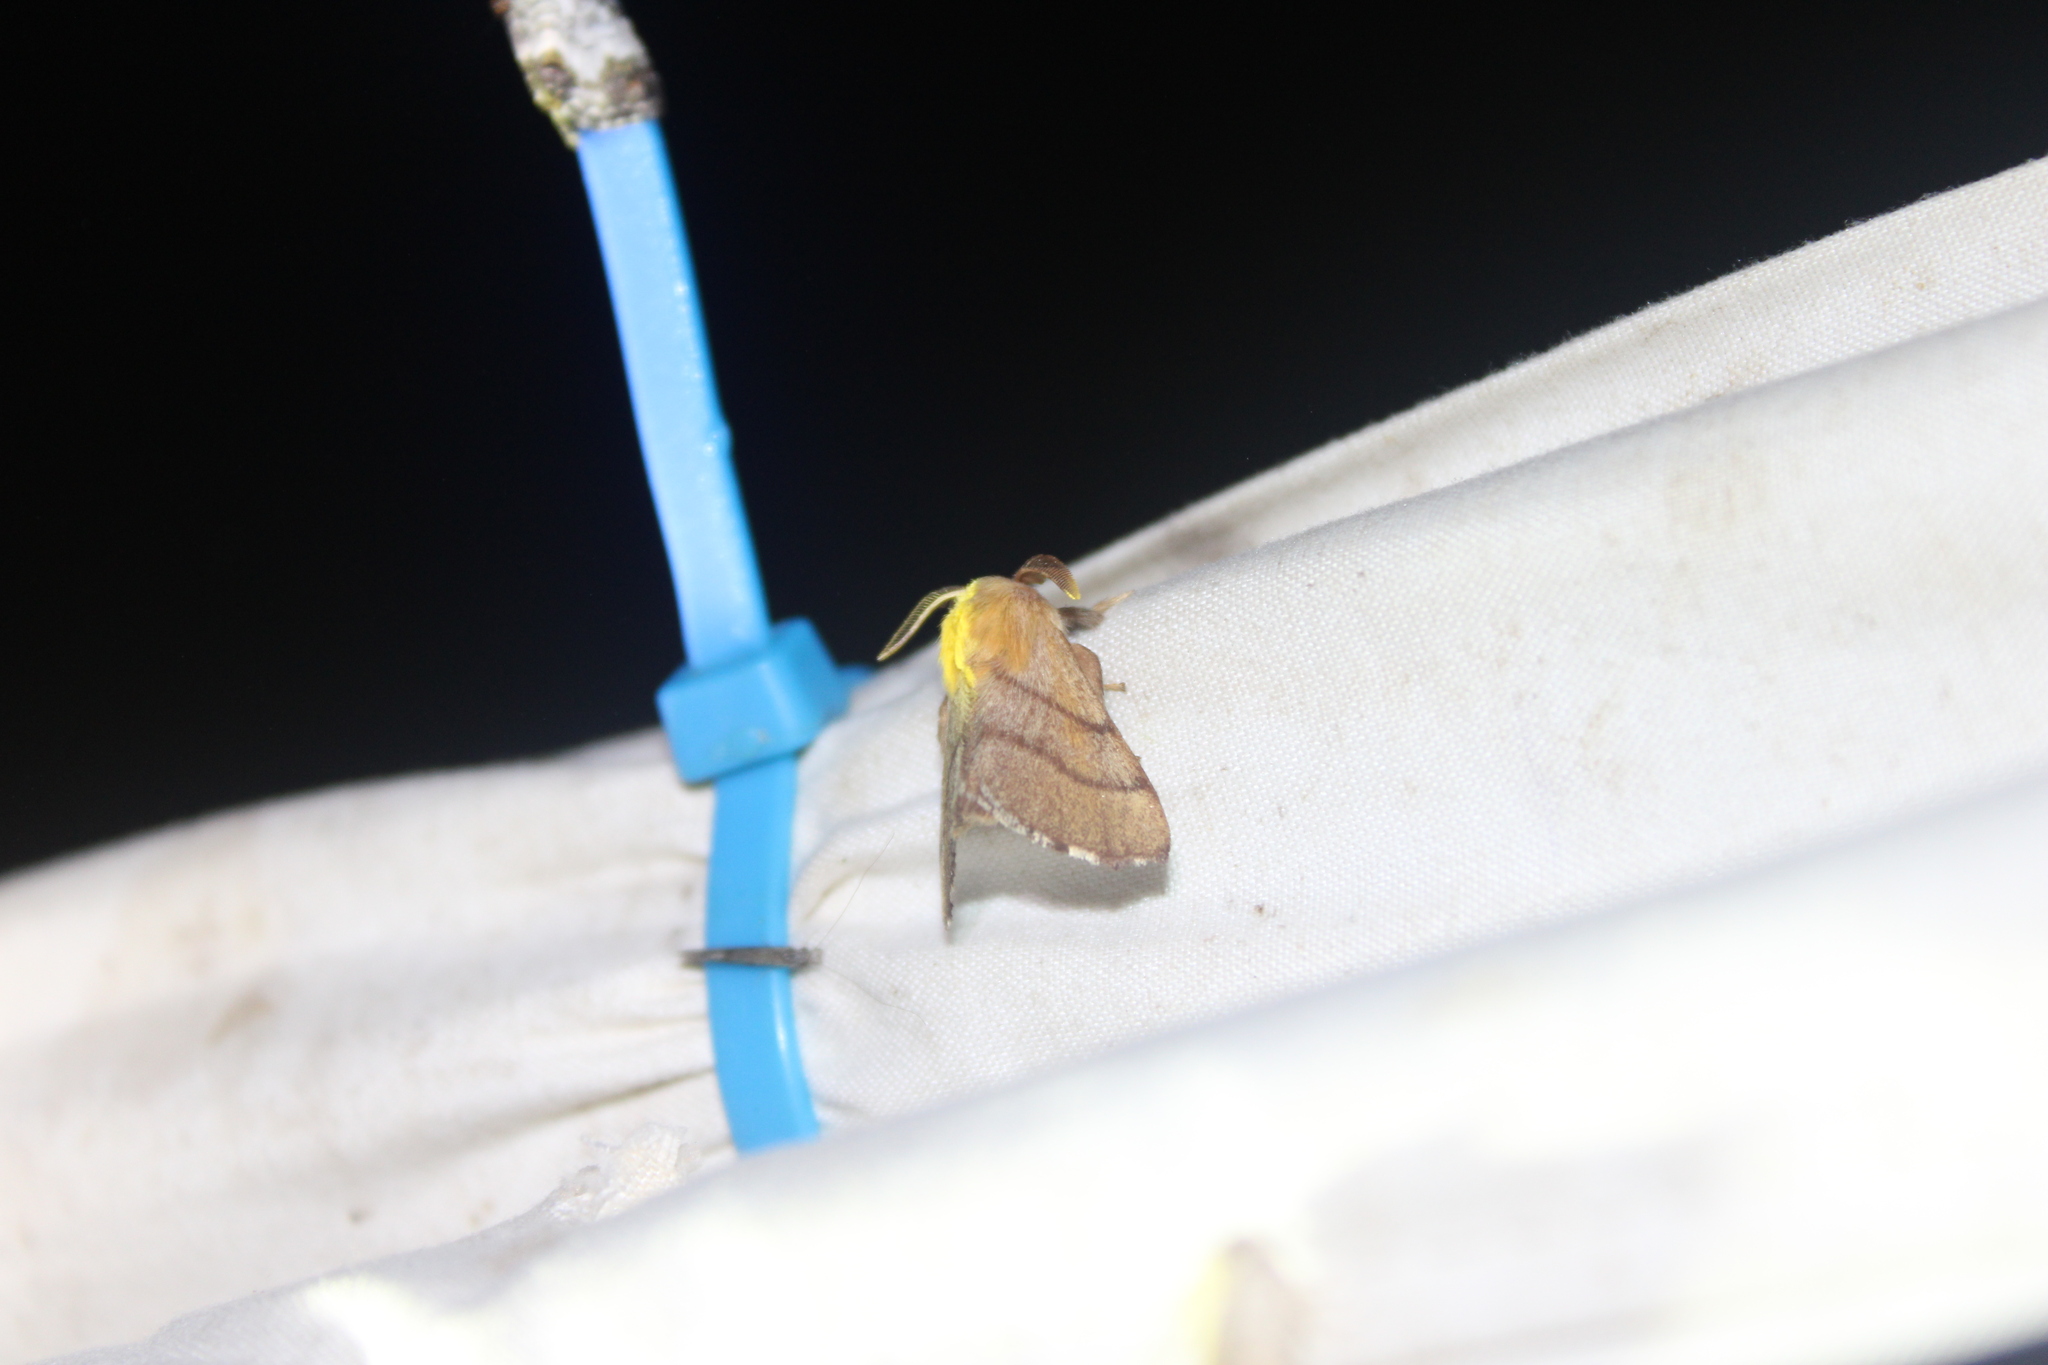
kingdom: Animalia
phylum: Arthropoda
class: Insecta
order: Lepidoptera
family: Lasiocampidae
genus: Malacosoma
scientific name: Malacosoma disstria
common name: Forest tent caterpillar
